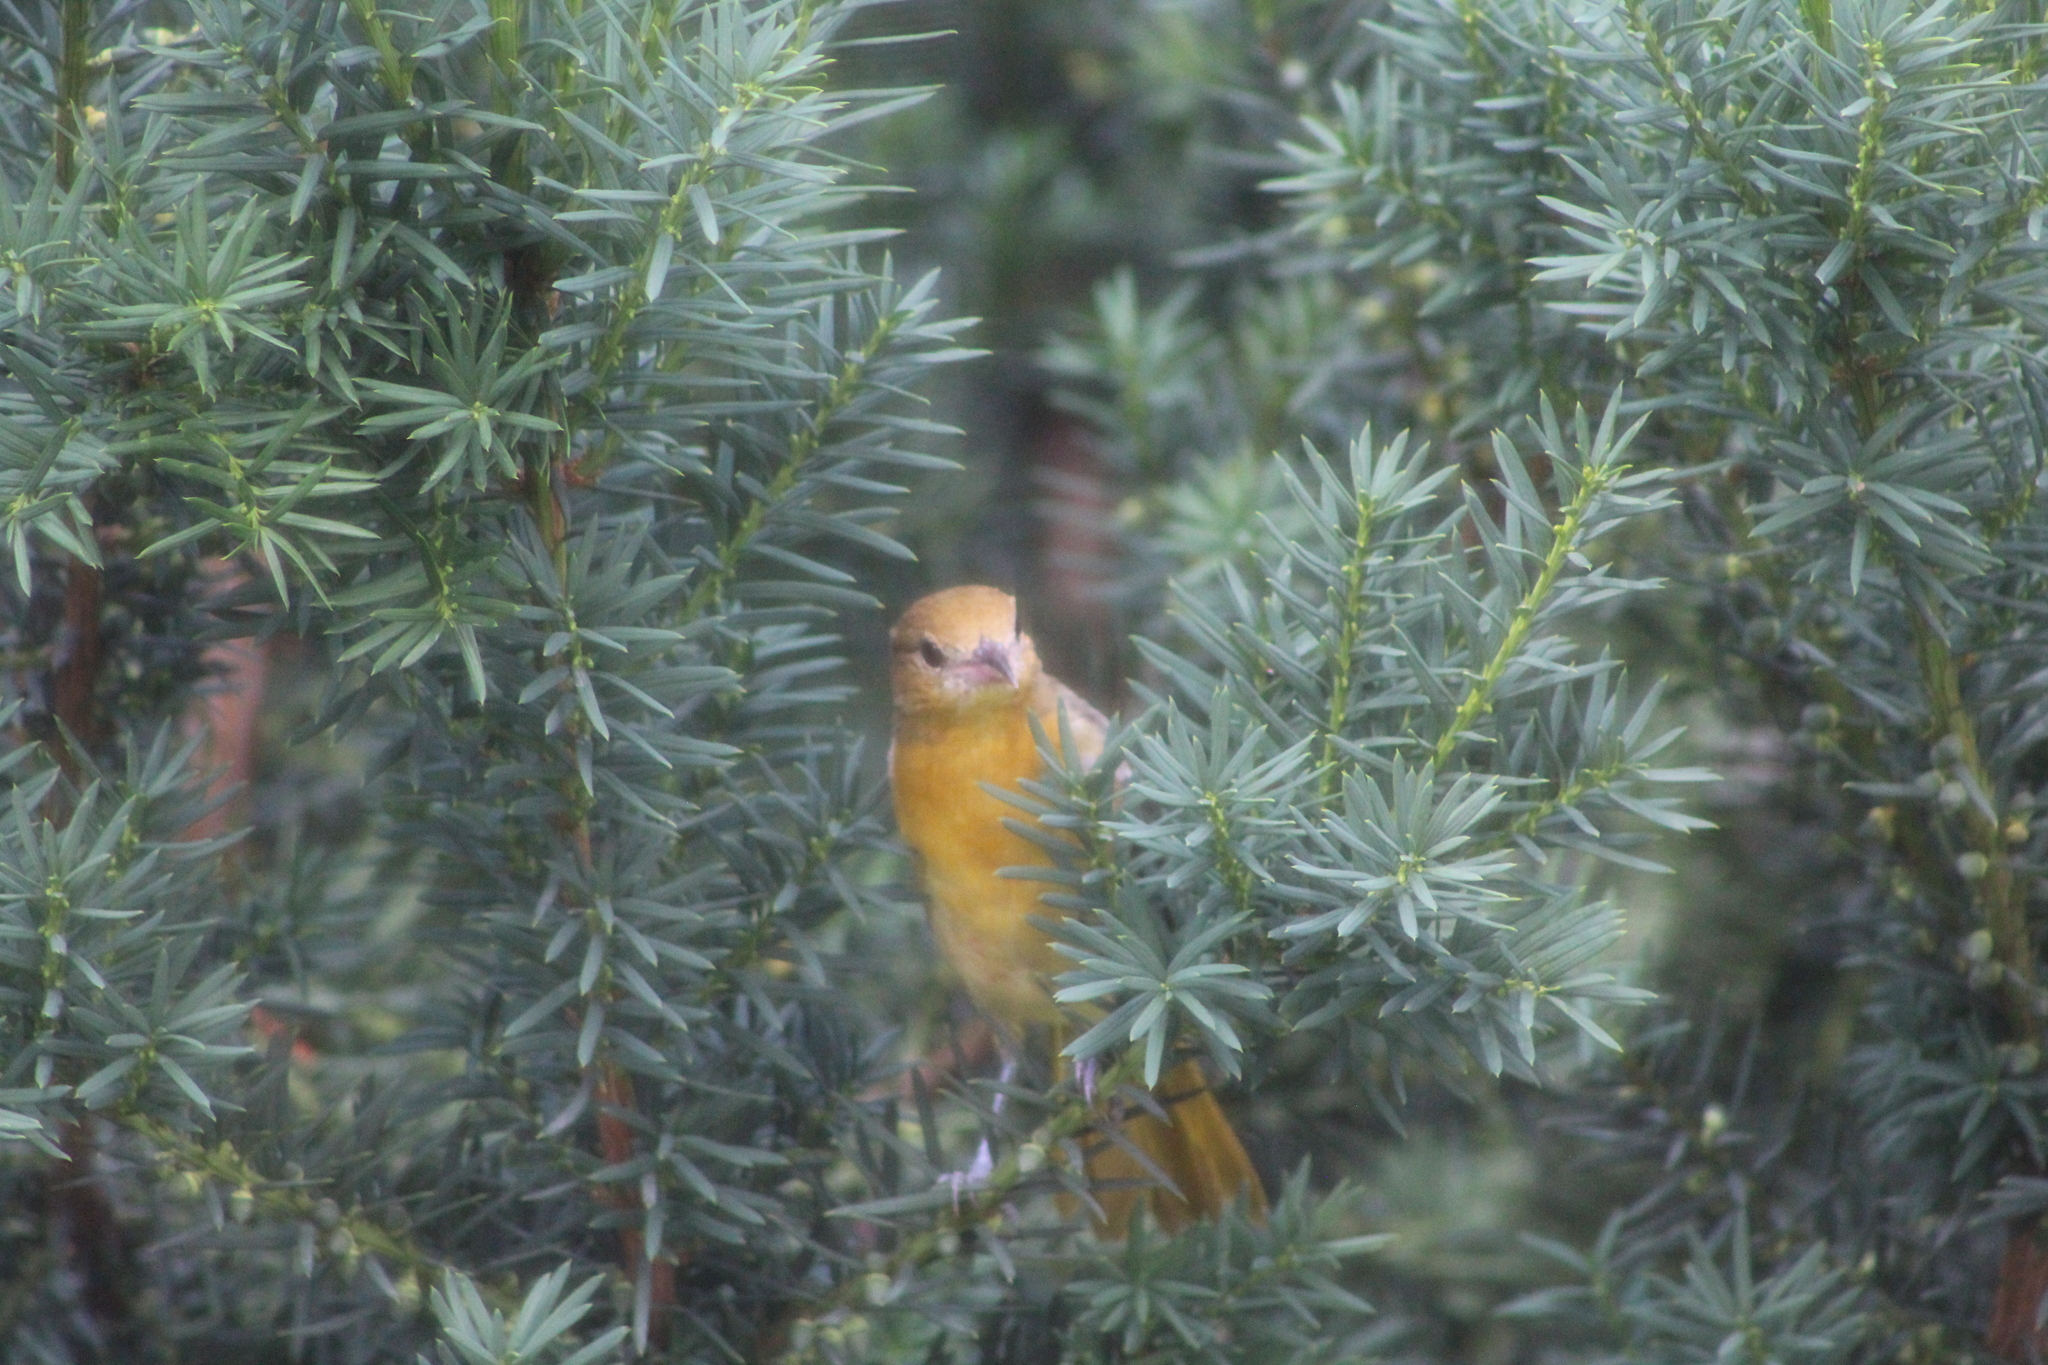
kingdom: Animalia
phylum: Chordata
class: Aves
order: Passeriformes
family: Icteridae
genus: Icterus
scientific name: Icterus galbula
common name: Baltimore oriole
